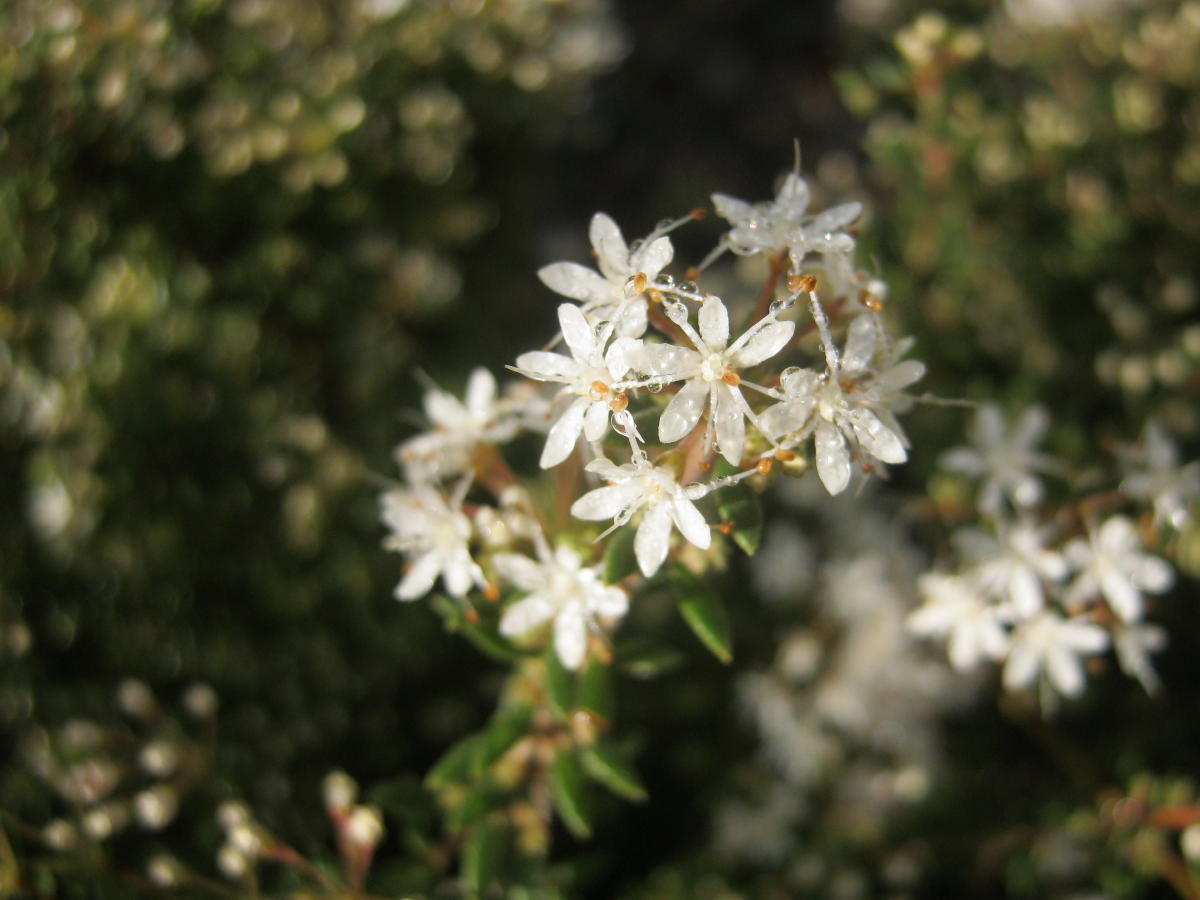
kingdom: Plantae
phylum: Tracheophyta
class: Magnoliopsida
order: Sapindales
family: Rutaceae
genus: Agathosma
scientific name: Agathosma mundtii
